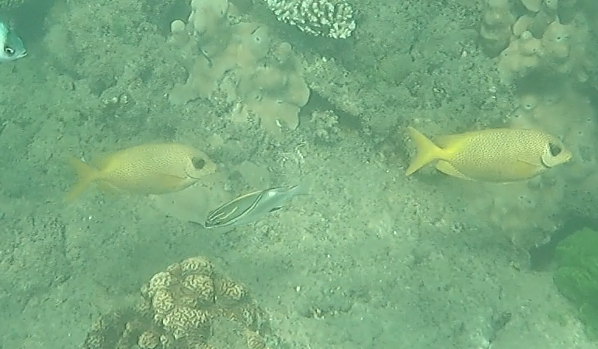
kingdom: Animalia
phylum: Chordata
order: Perciformes
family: Siganidae
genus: Siganus
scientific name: Siganus corallinus
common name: Coral rabbitfish
